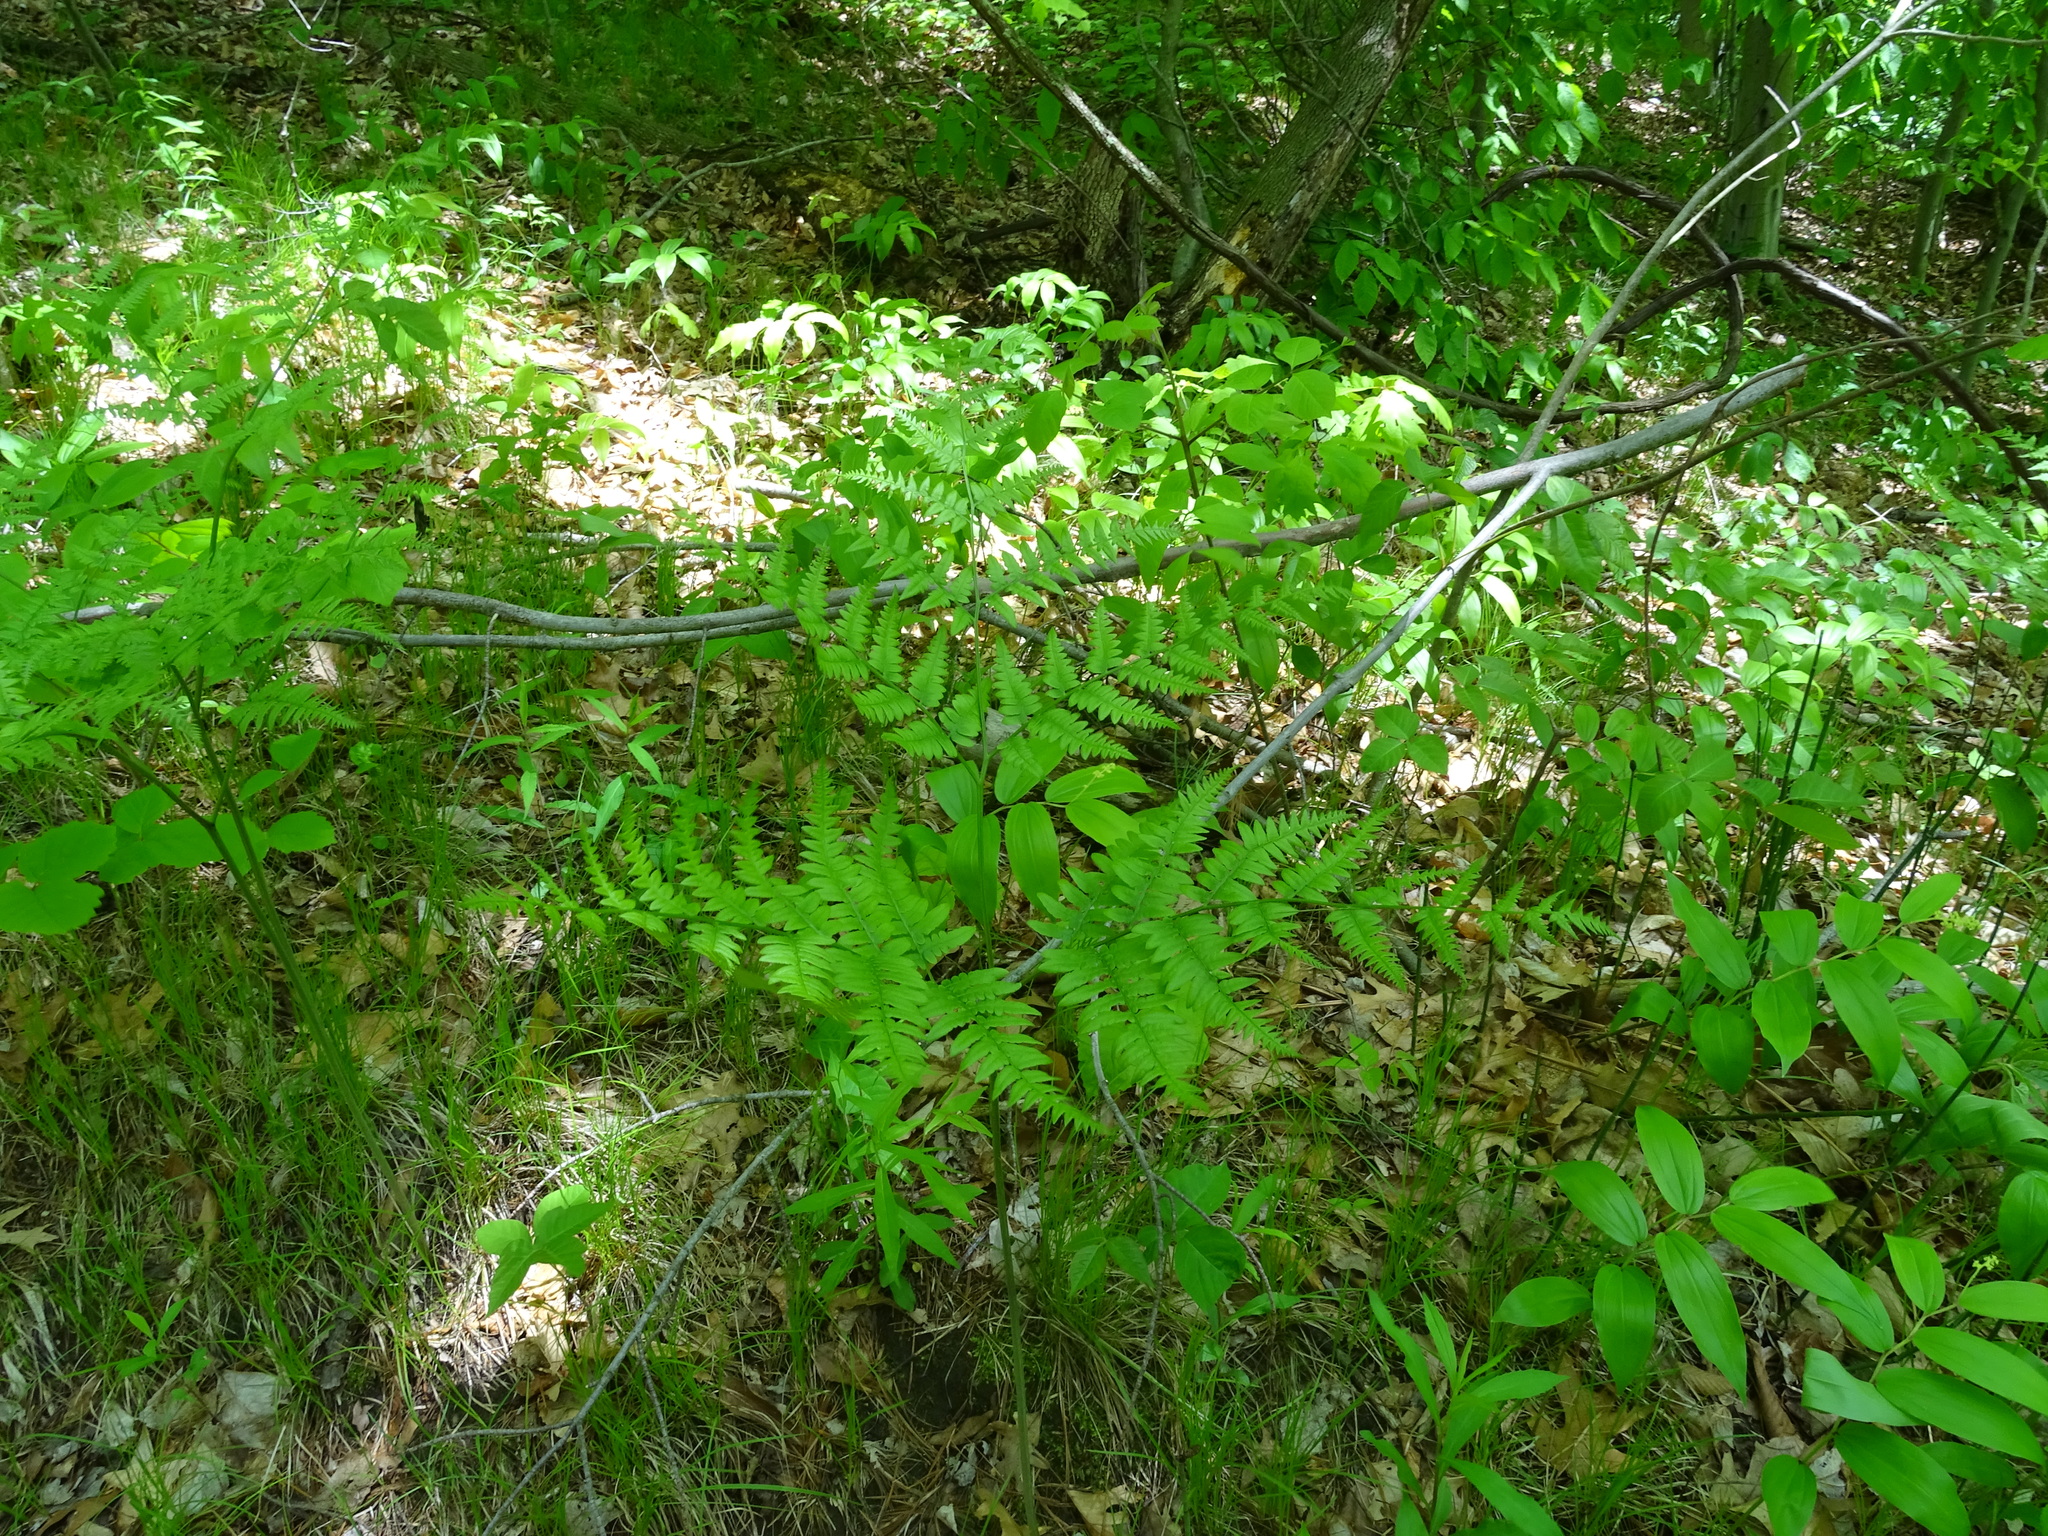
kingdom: Plantae
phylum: Tracheophyta
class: Polypodiopsida
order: Polypodiales
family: Dennstaedtiaceae
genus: Pteridium
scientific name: Pteridium aquilinum
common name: Bracken
